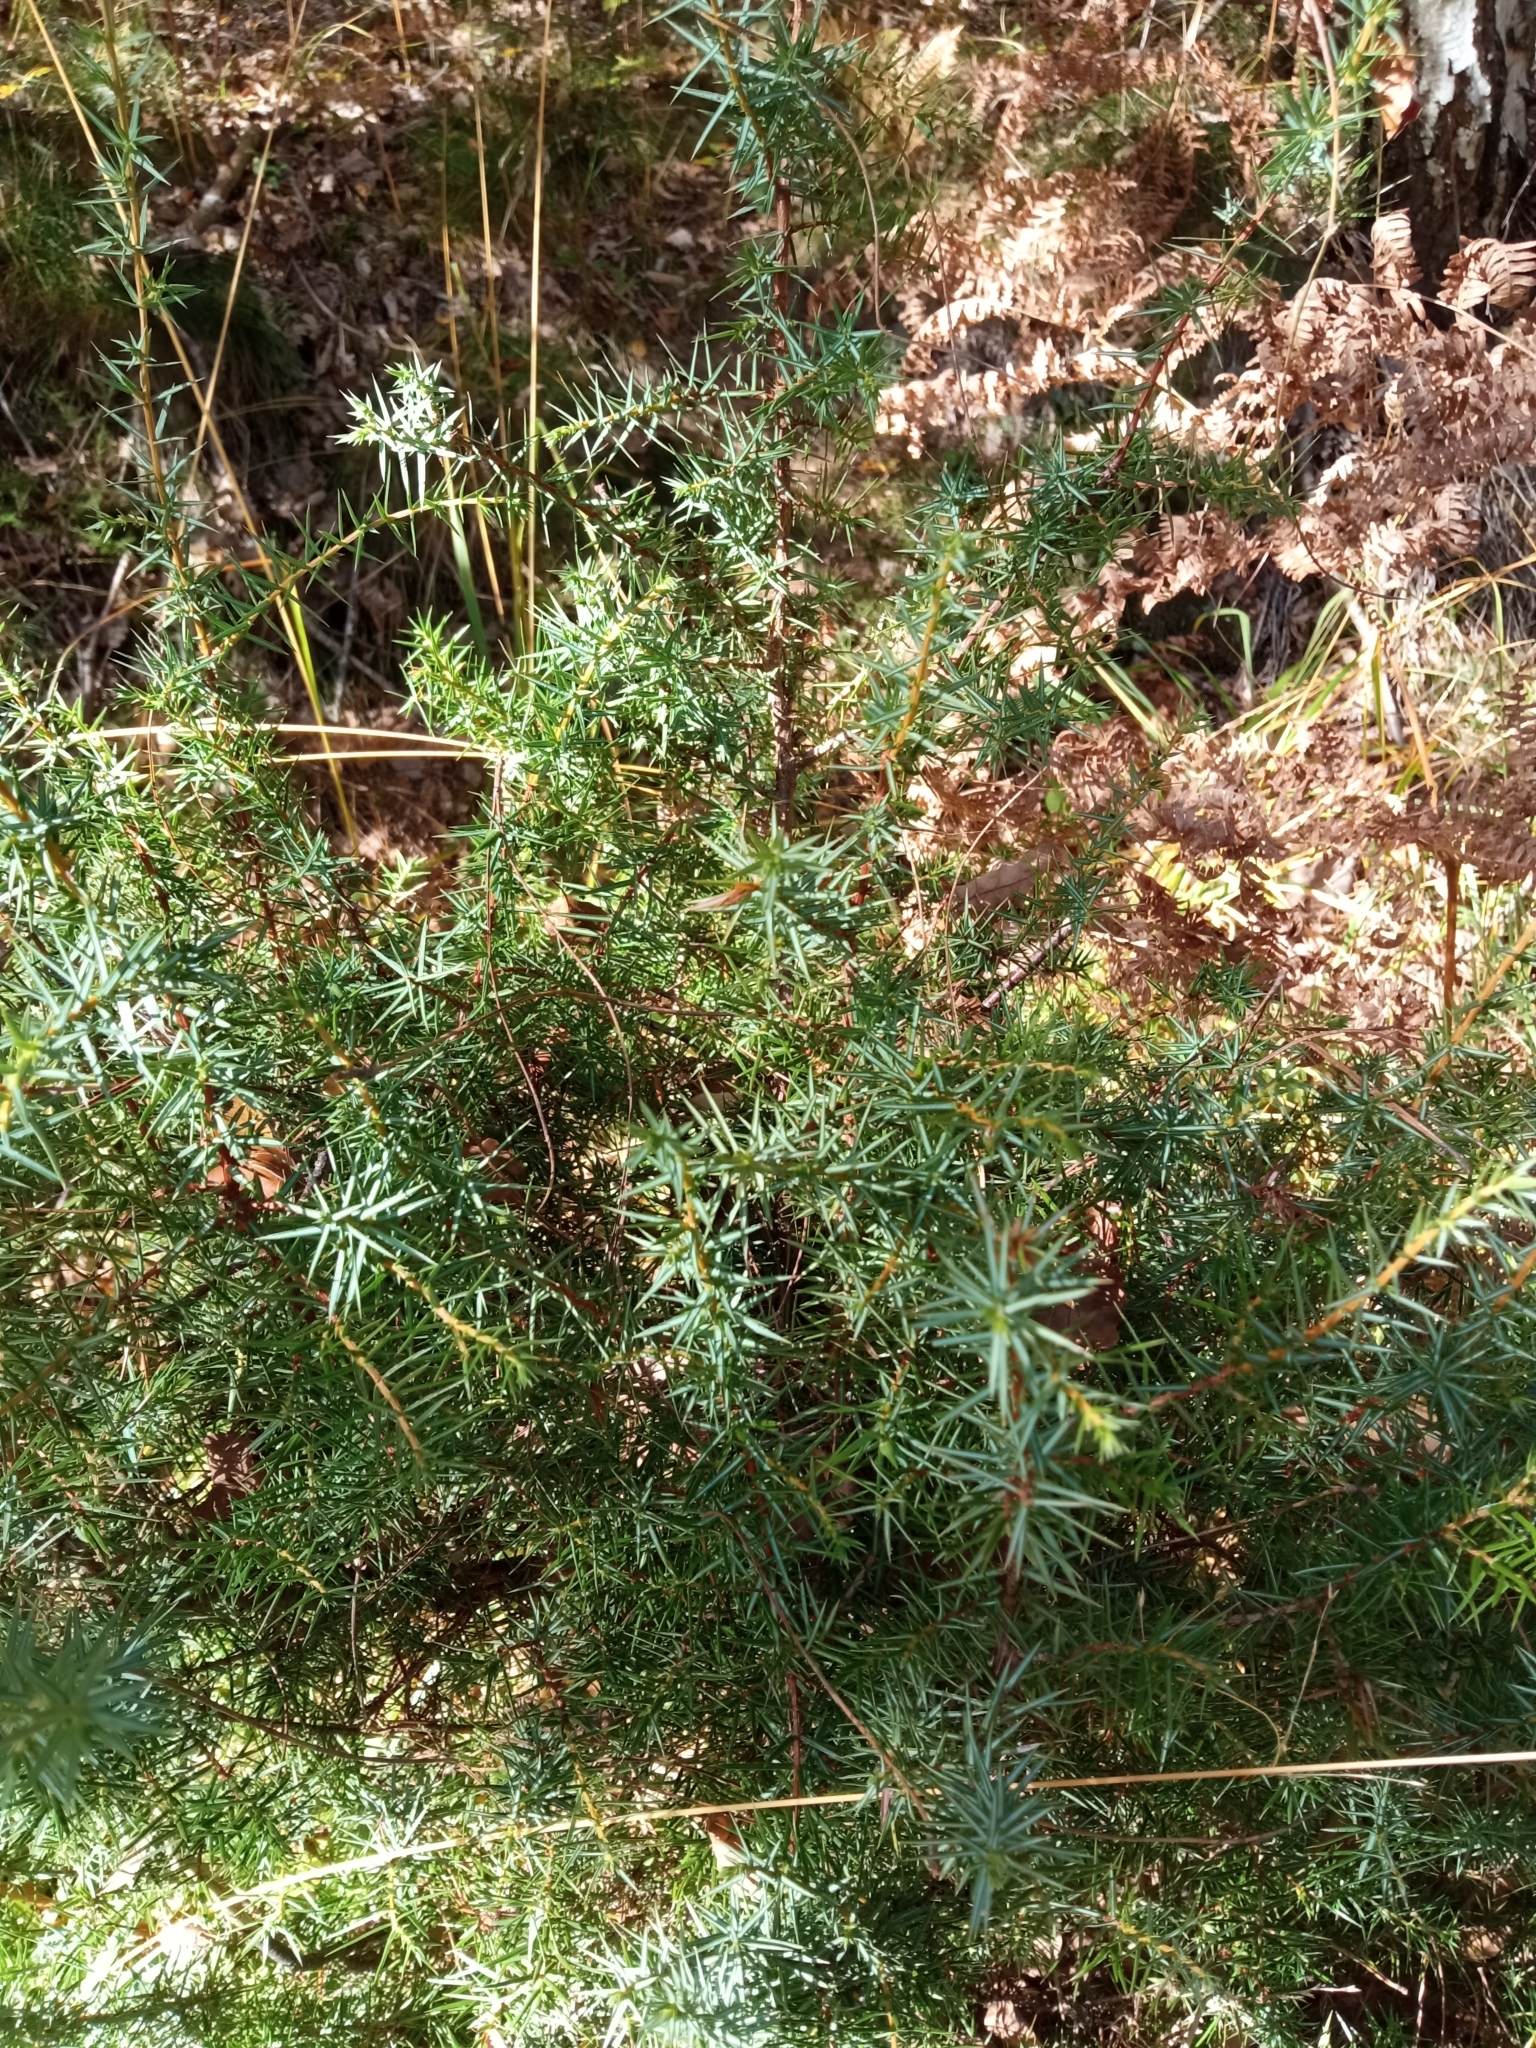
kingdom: Plantae
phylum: Tracheophyta
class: Pinopsida
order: Pinales
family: Cupressaceae
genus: Juniperus
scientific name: Juniperus communis
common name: Common juniper
